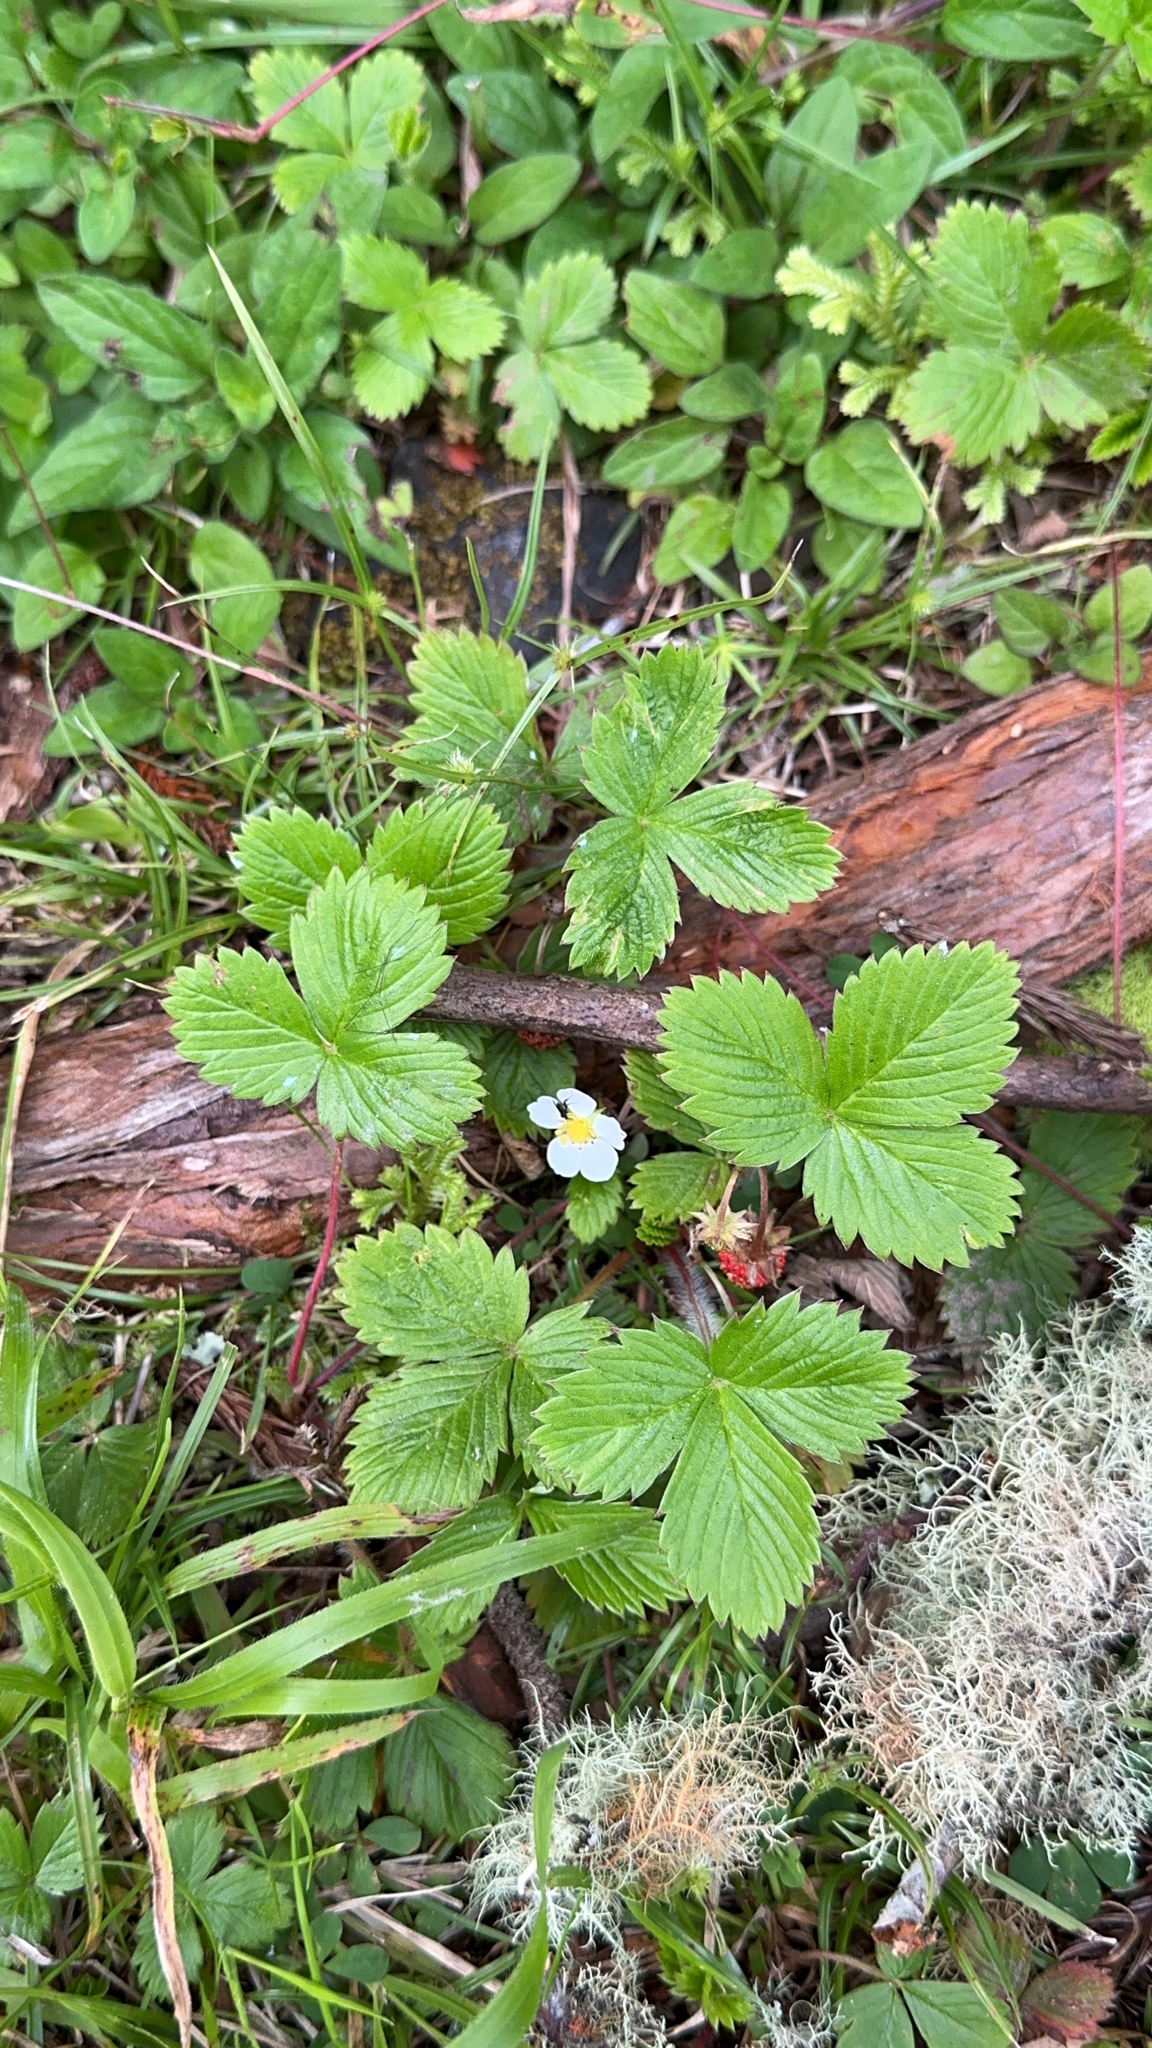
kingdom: Plantae
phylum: Tracheophyta
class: Magnoliopsida
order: Rosales
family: Rosaceae
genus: Fragaria
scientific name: Fragaria vesca
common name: Wild strawberry
